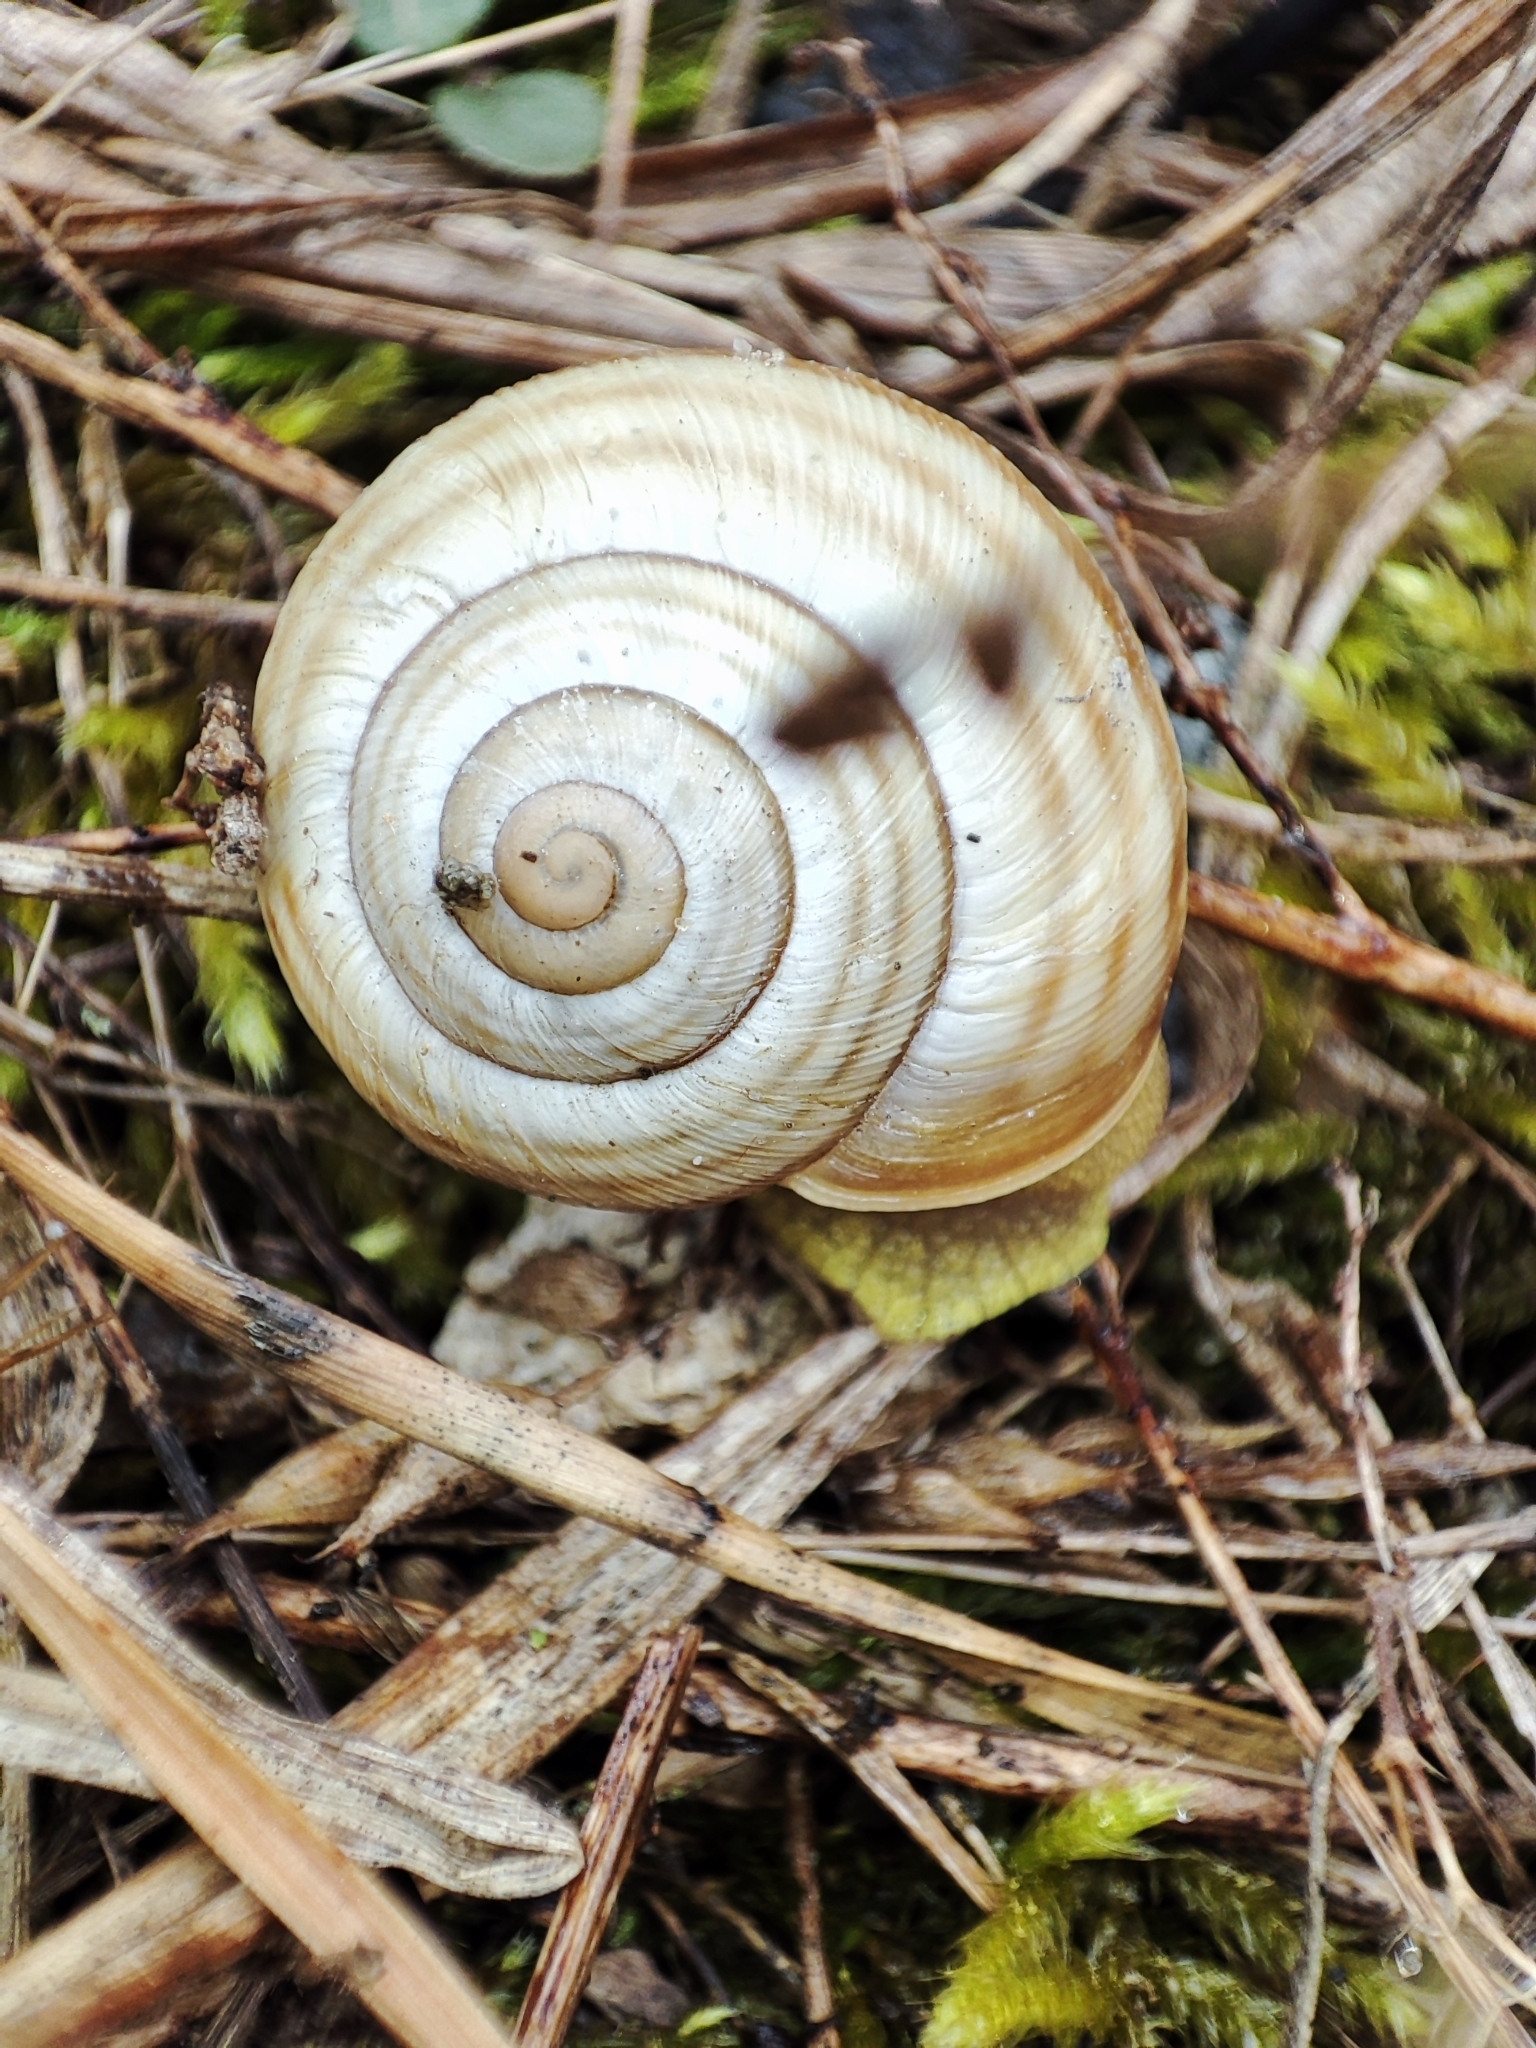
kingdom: Animalia
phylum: Mollusca
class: Gastropoda
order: Stylommatophora
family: Helicidae
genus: Caucasotachea
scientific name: Caucasotachea vindobonensis
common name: European helicid land snail
